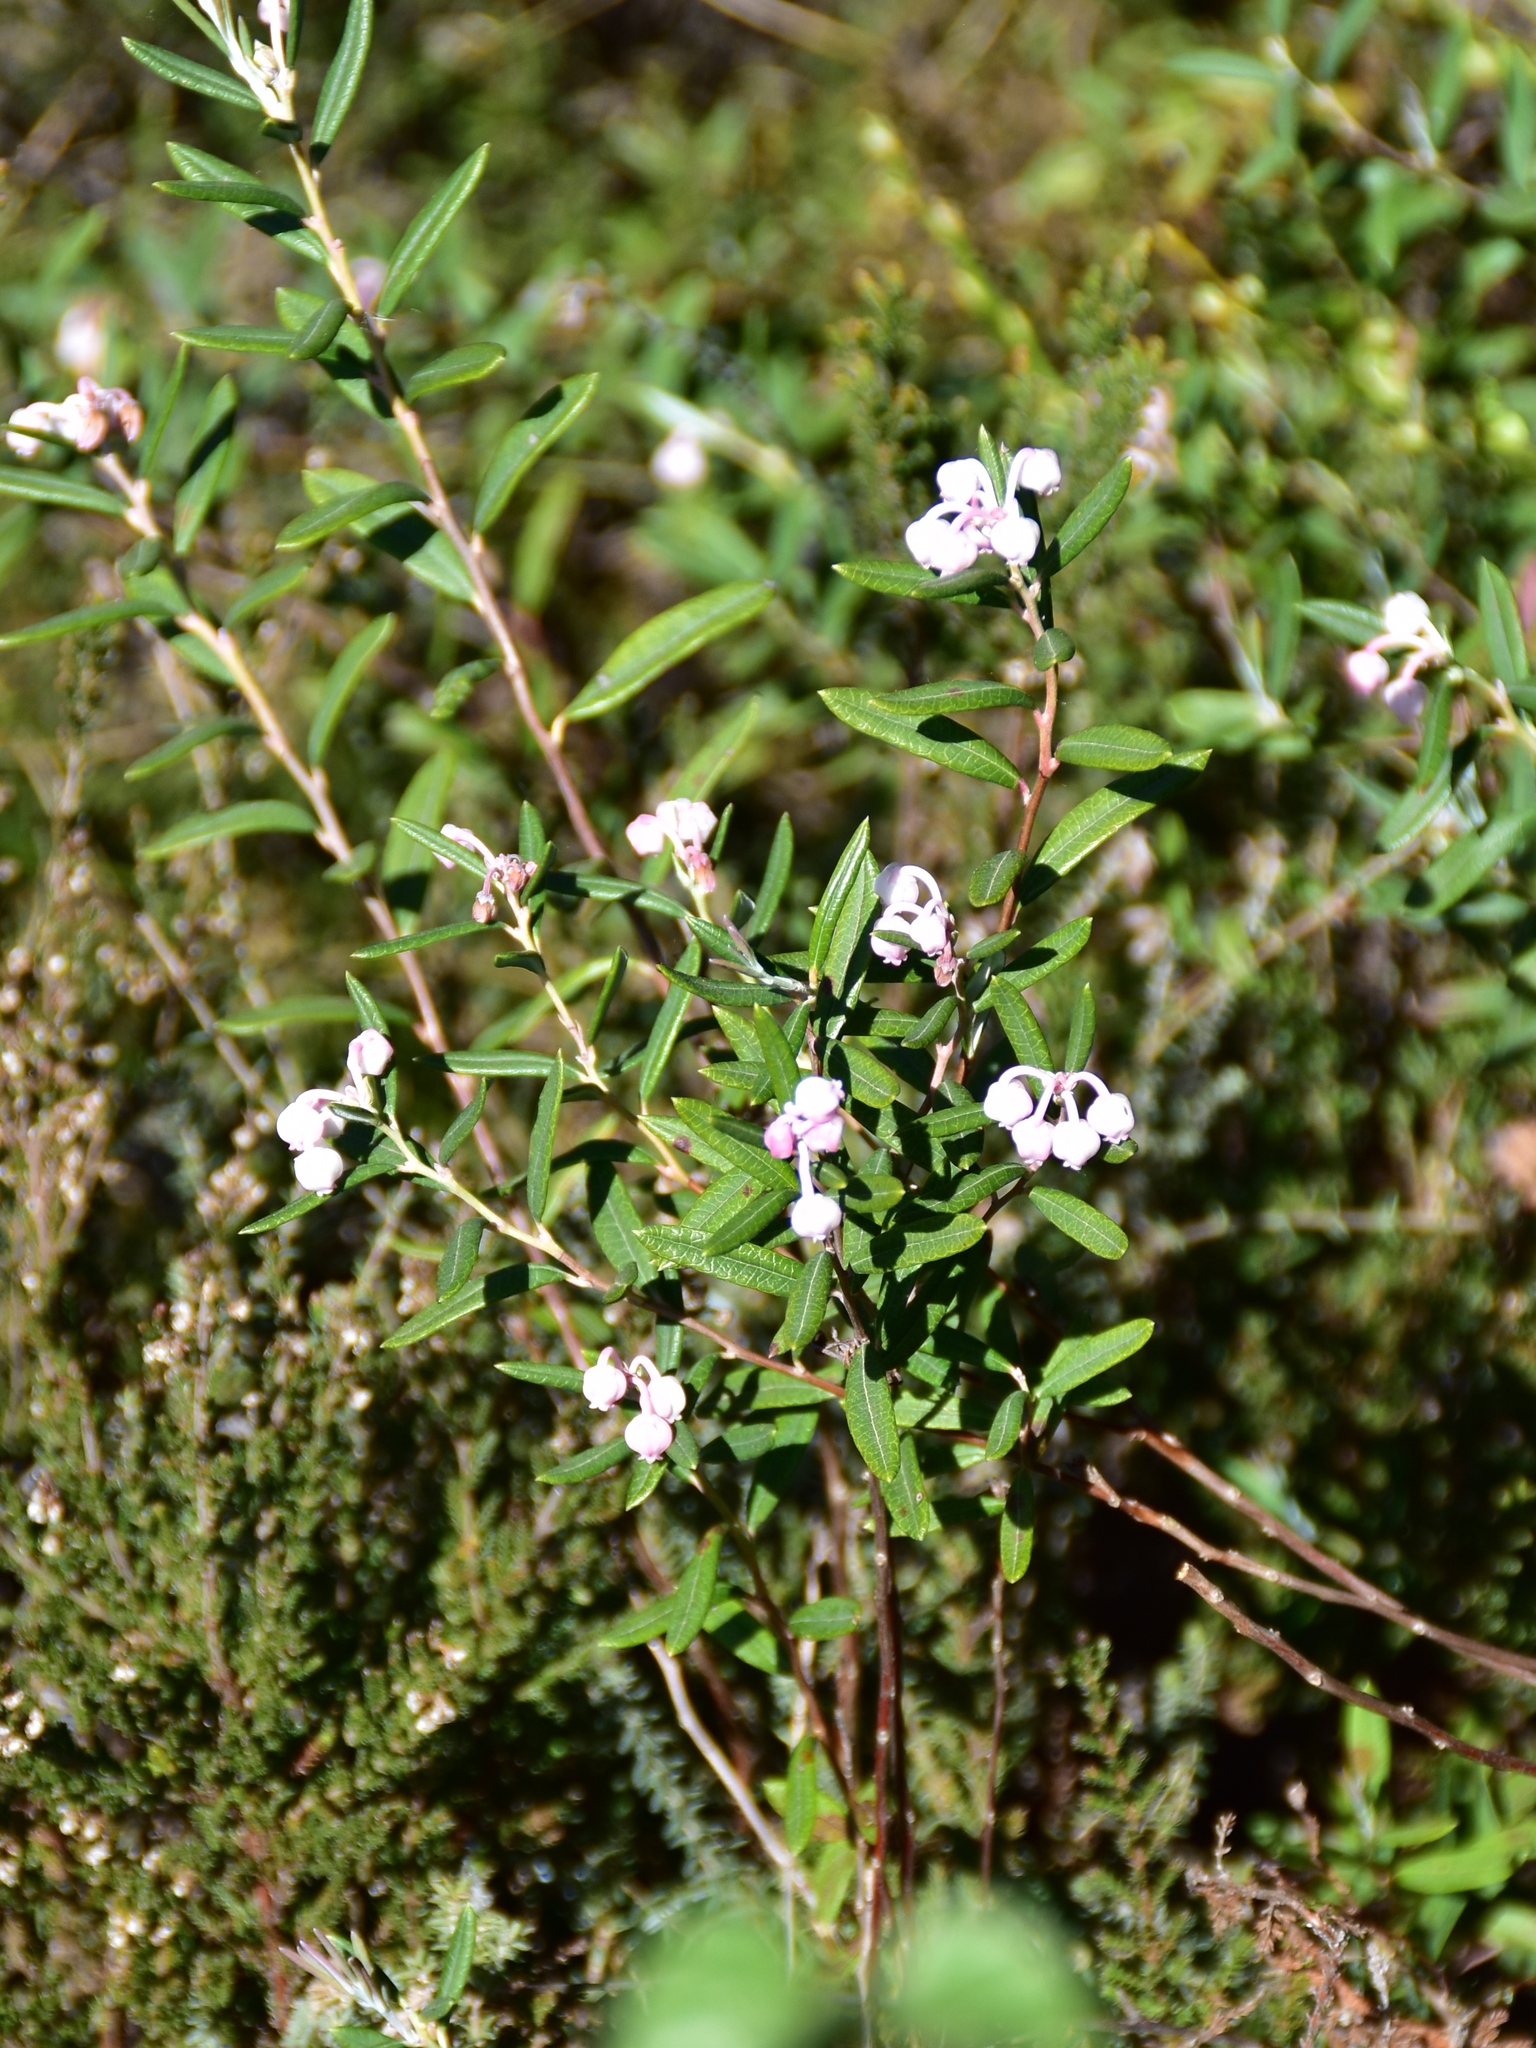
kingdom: Plantae
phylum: Tracheophyta
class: Magnoliopsida
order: Ericales
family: Ericaceae
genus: Andromeda
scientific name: Andromeda polifolia
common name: Bog-rosemary
